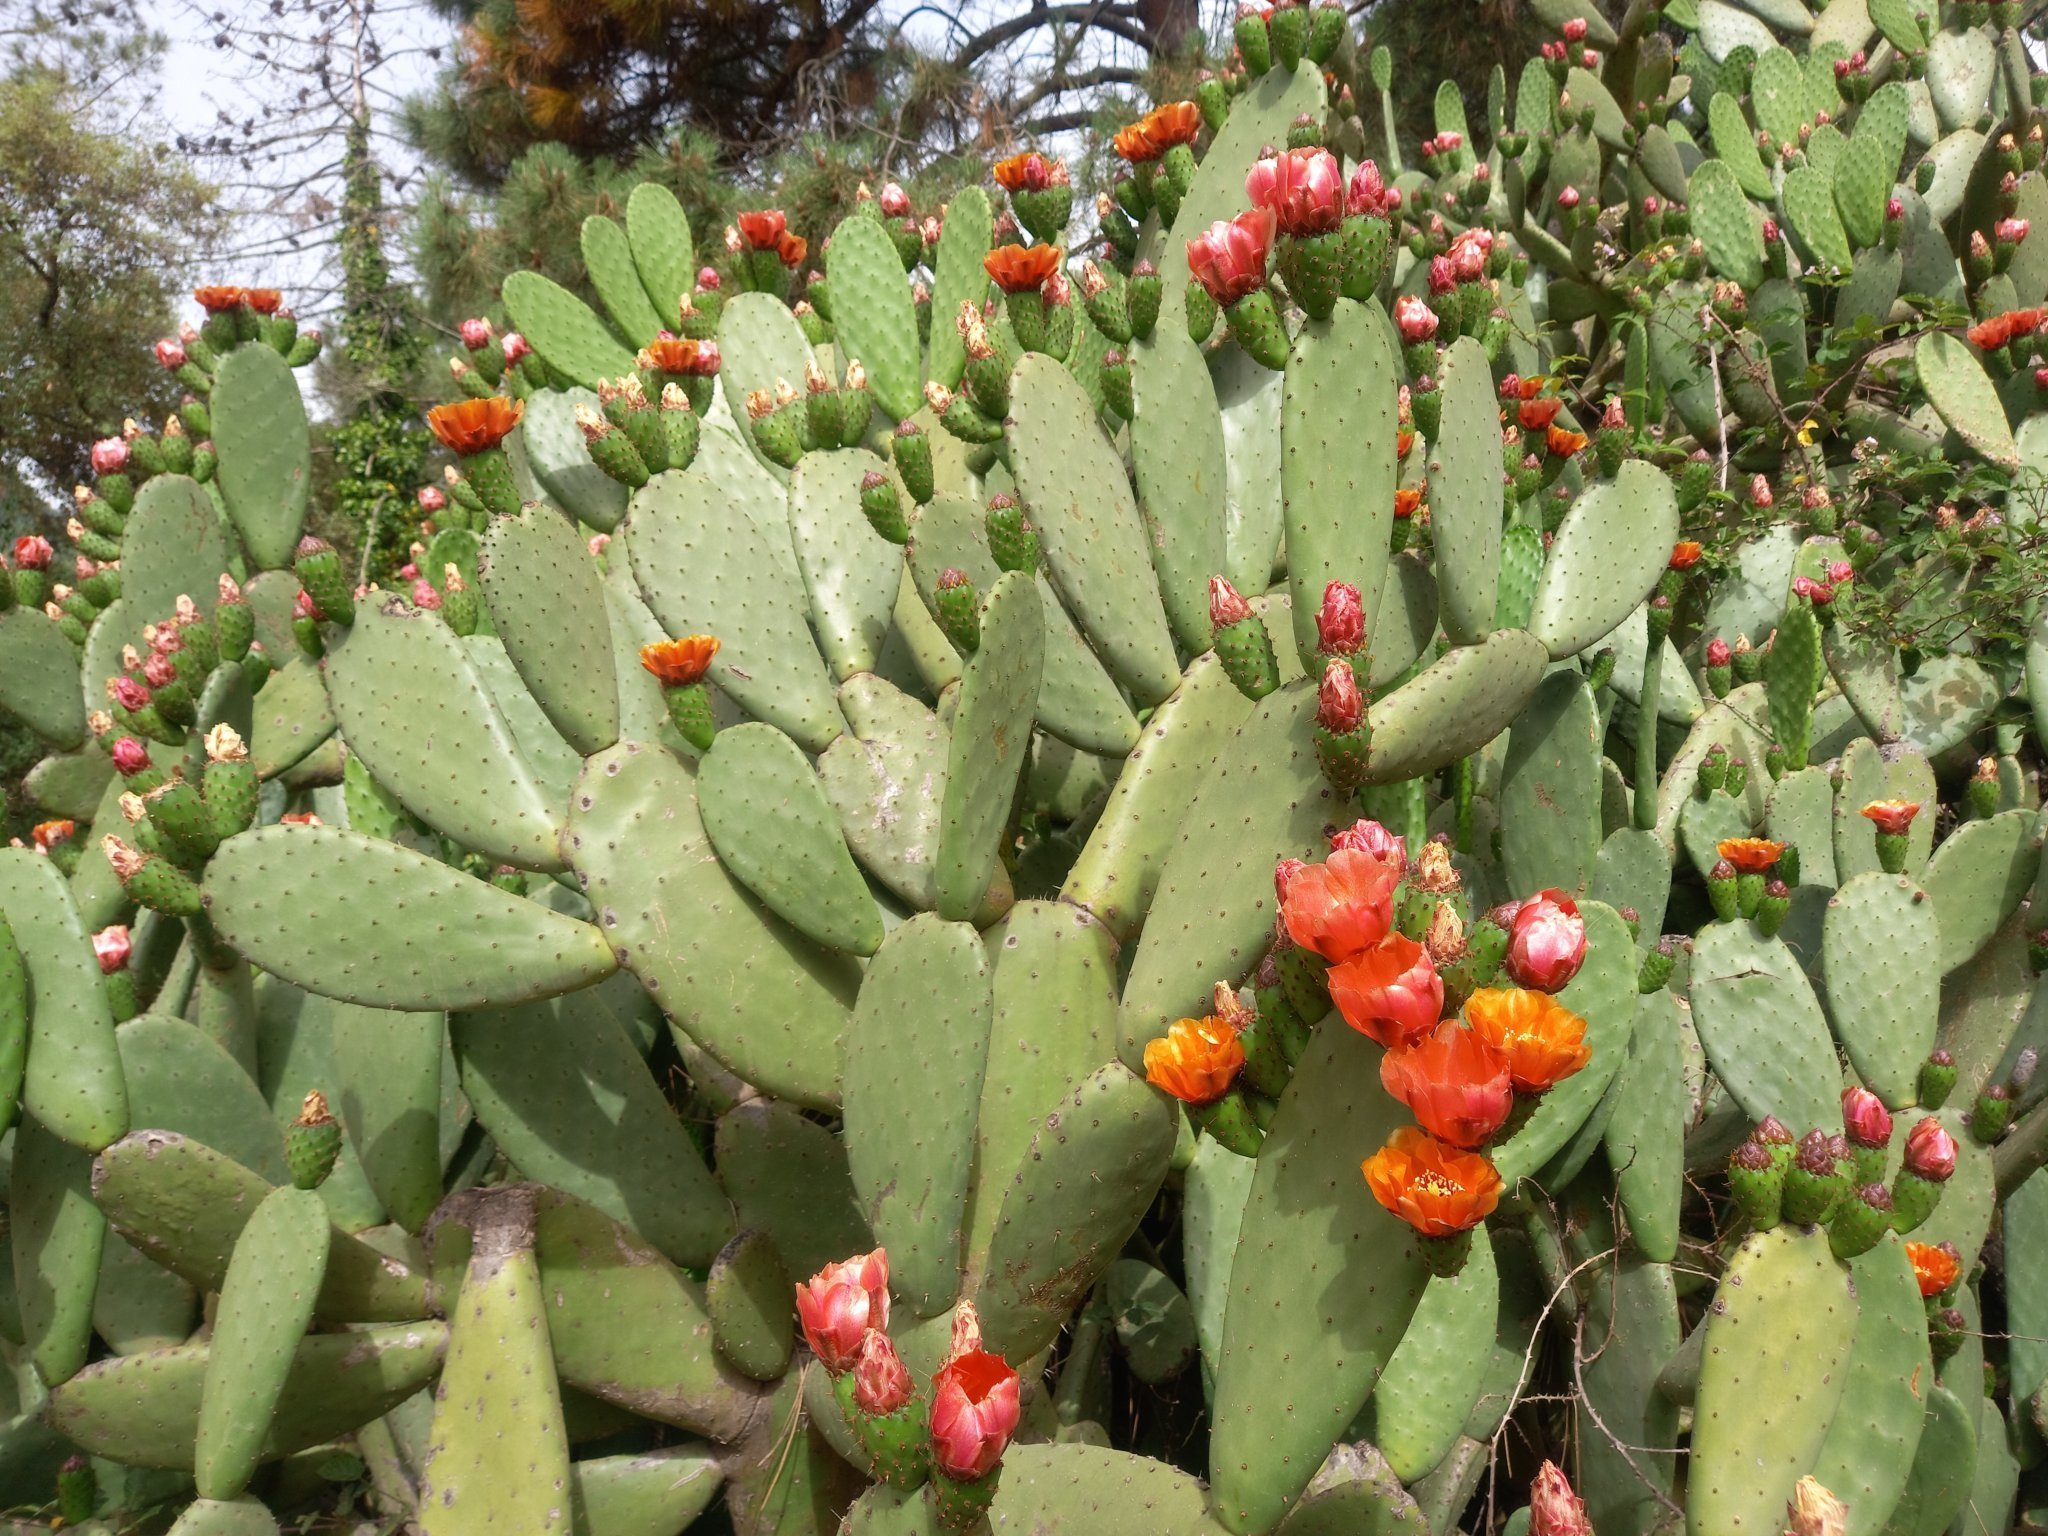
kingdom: Plantae
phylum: Tracheophyta
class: Magnoliopsida
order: Caryophyllales
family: Cactaceae
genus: Opuntia
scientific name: Opuntia ficus-indica
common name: Barbary fig
